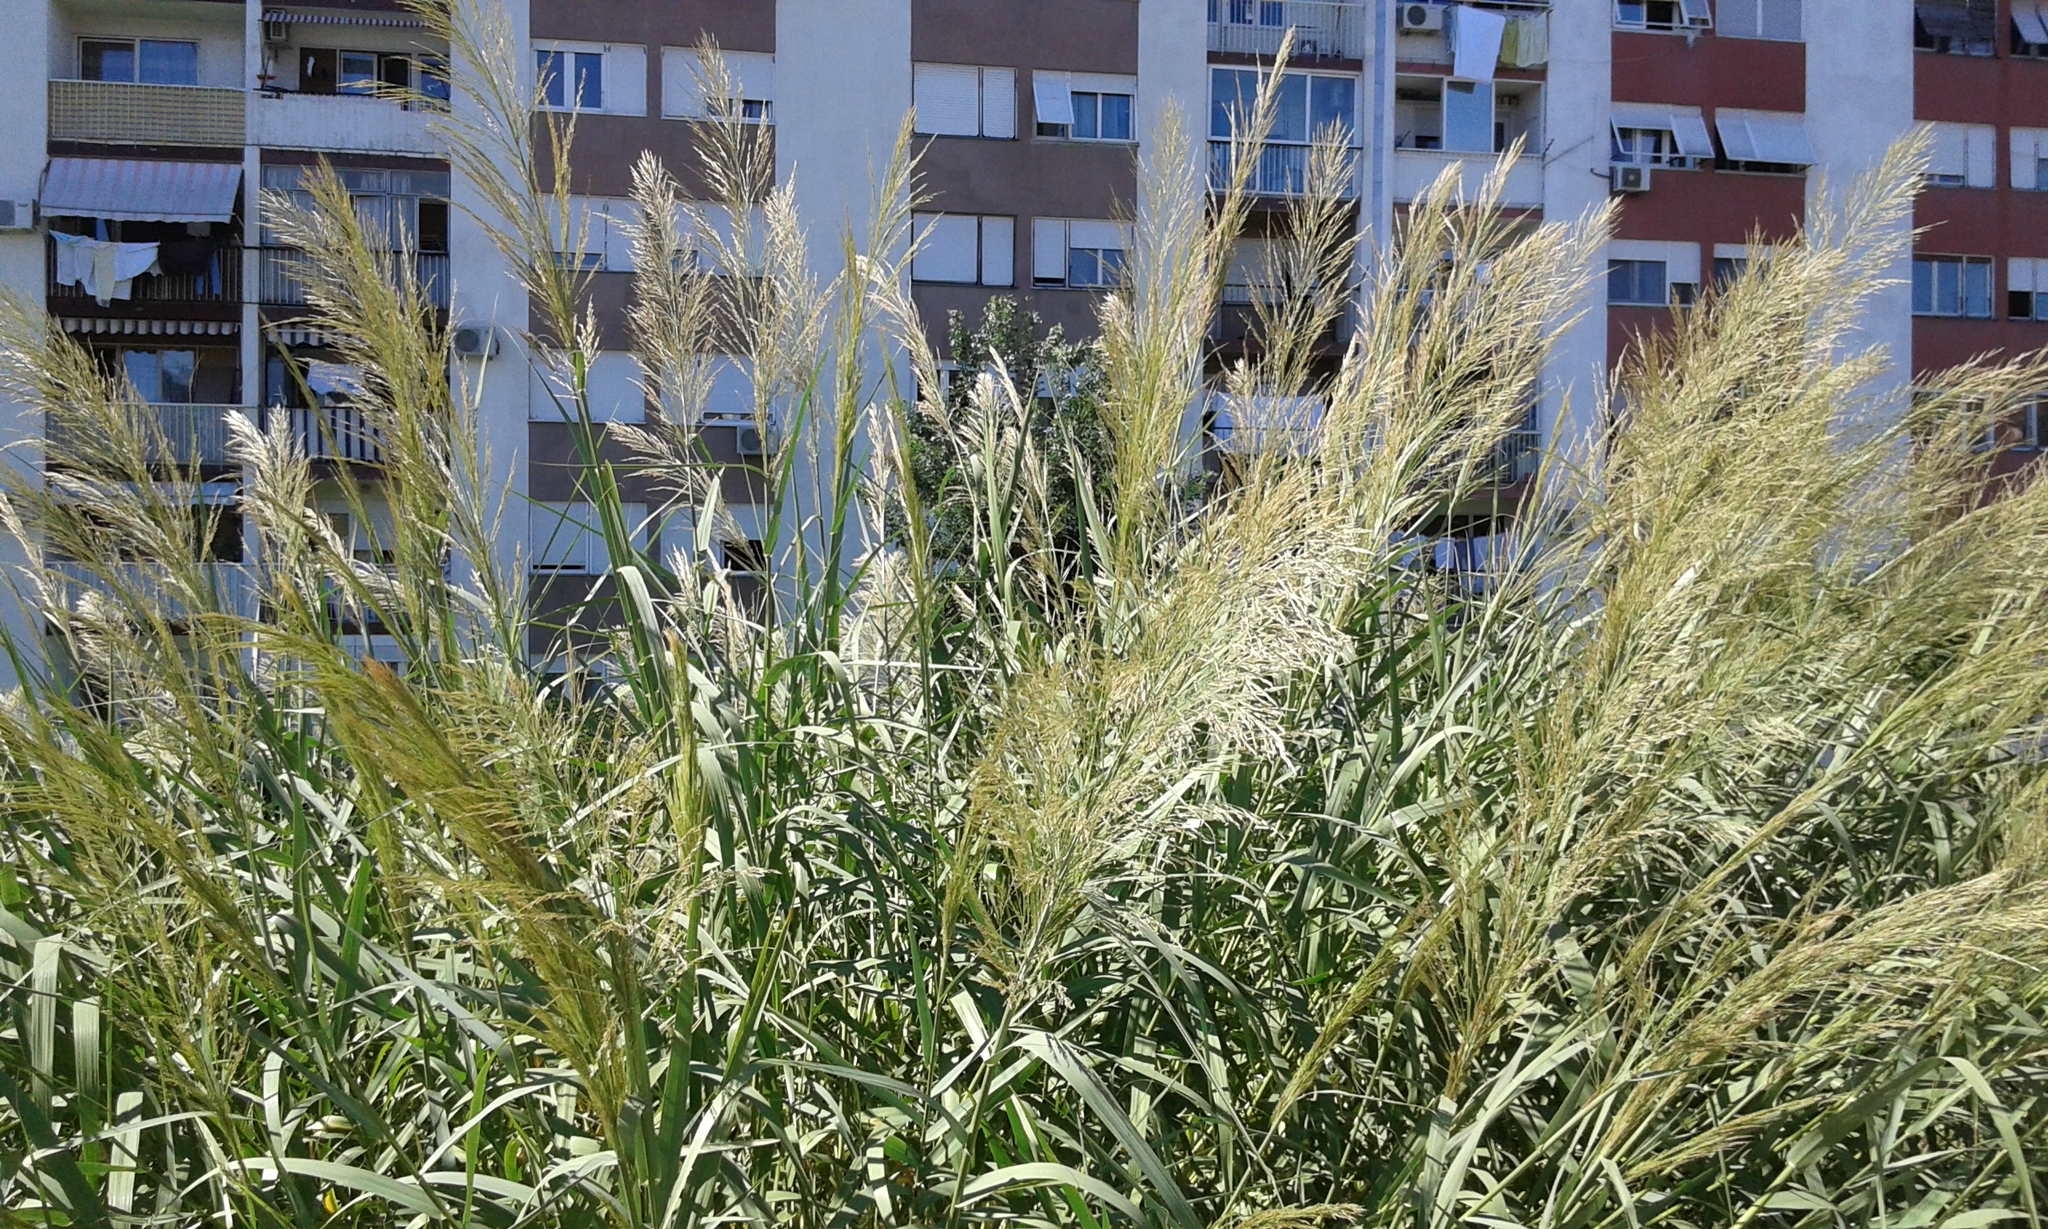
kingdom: Plantae
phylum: Tracheophyta
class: Liliopsida
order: Poales
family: Poaceae
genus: Arundo
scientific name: Arundo donax
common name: Giant reed
